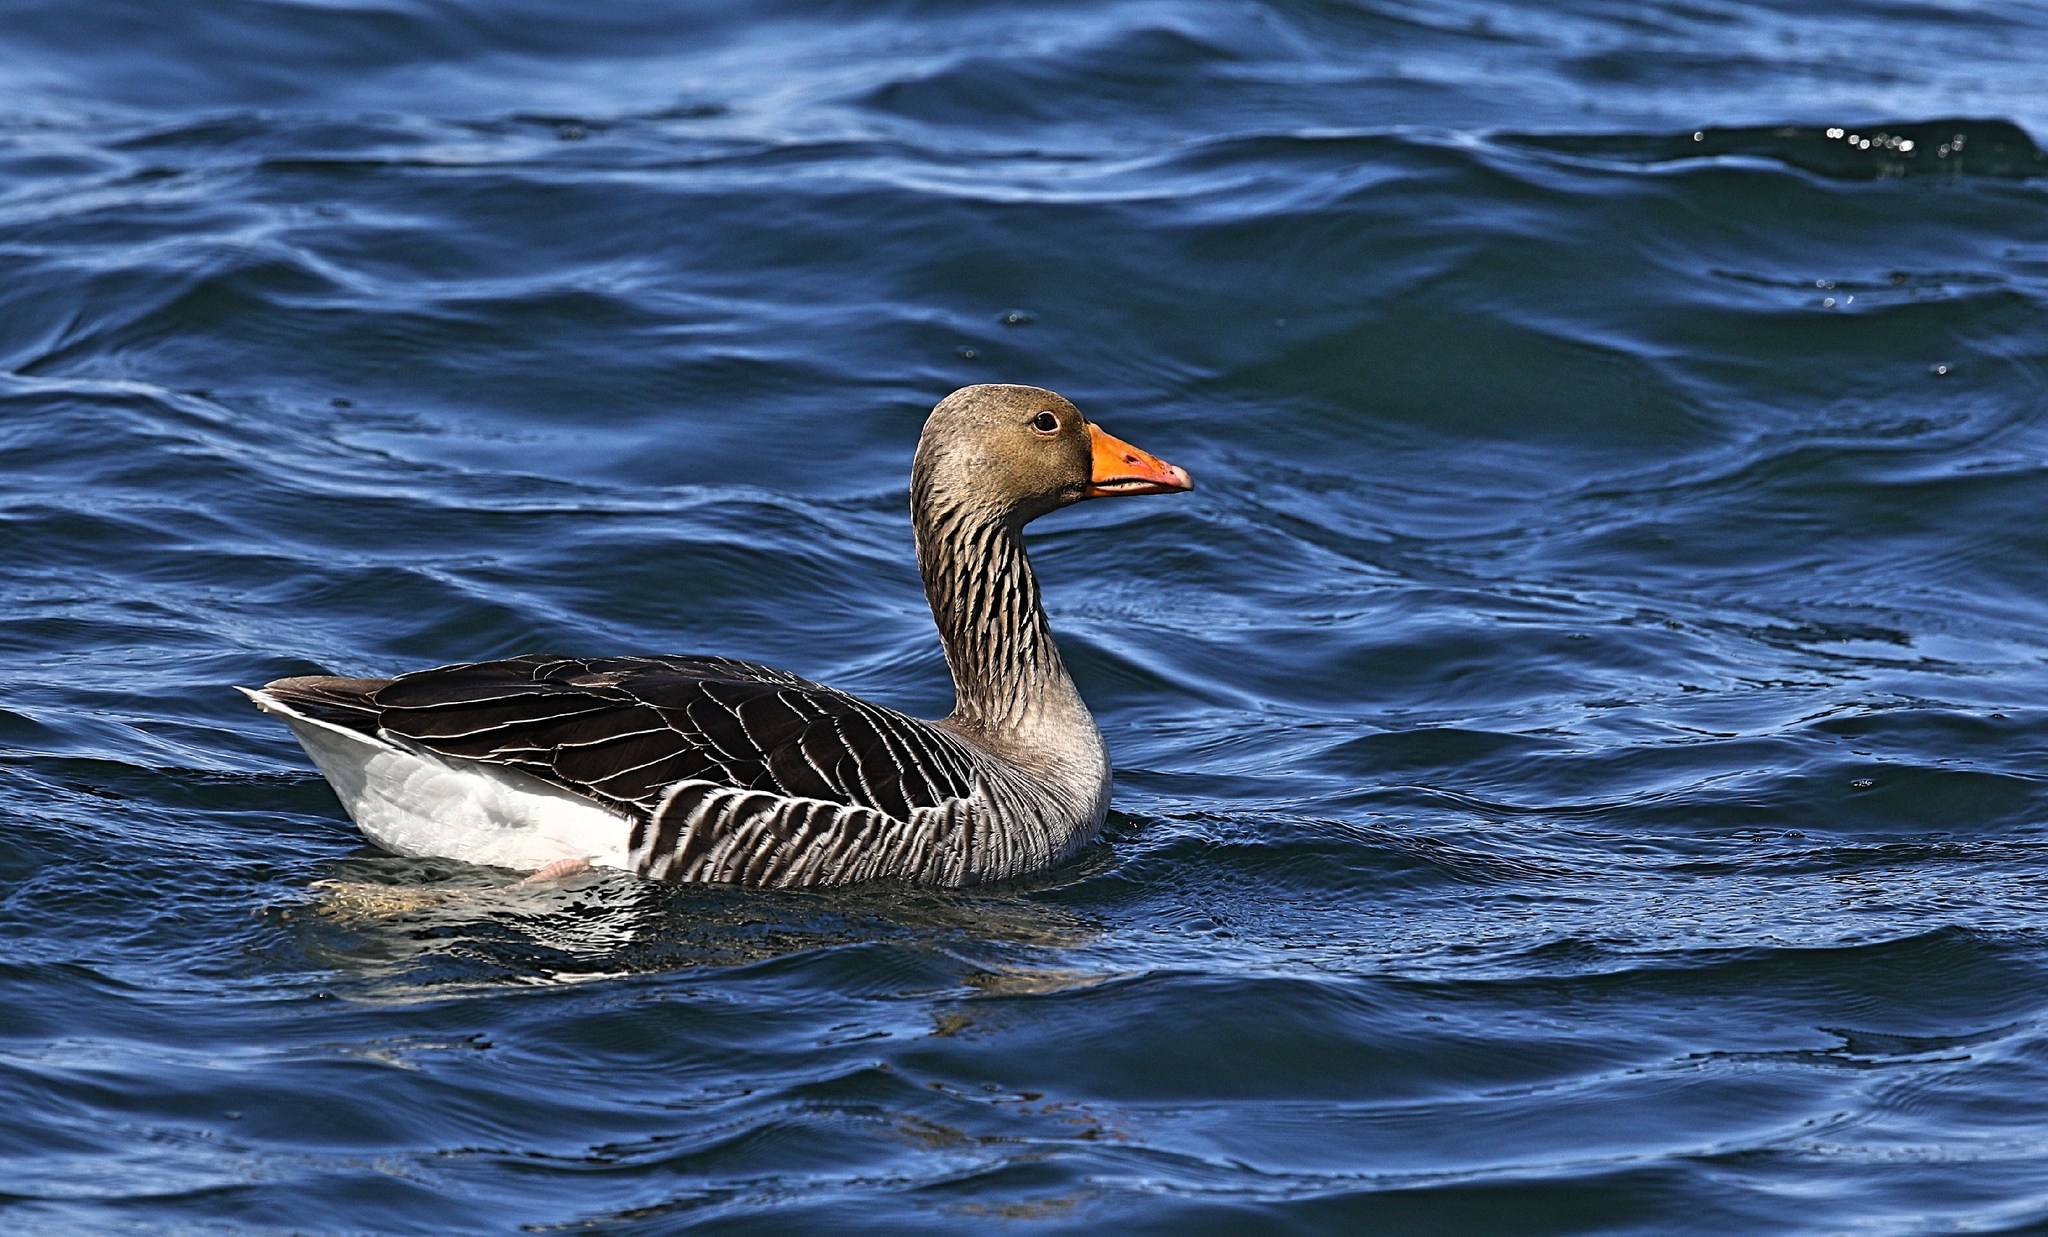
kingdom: Animalia
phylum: Chordata
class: Aves
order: Anseriformes
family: Anatidae
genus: Anser
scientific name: Anser anser
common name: Greylag goose
